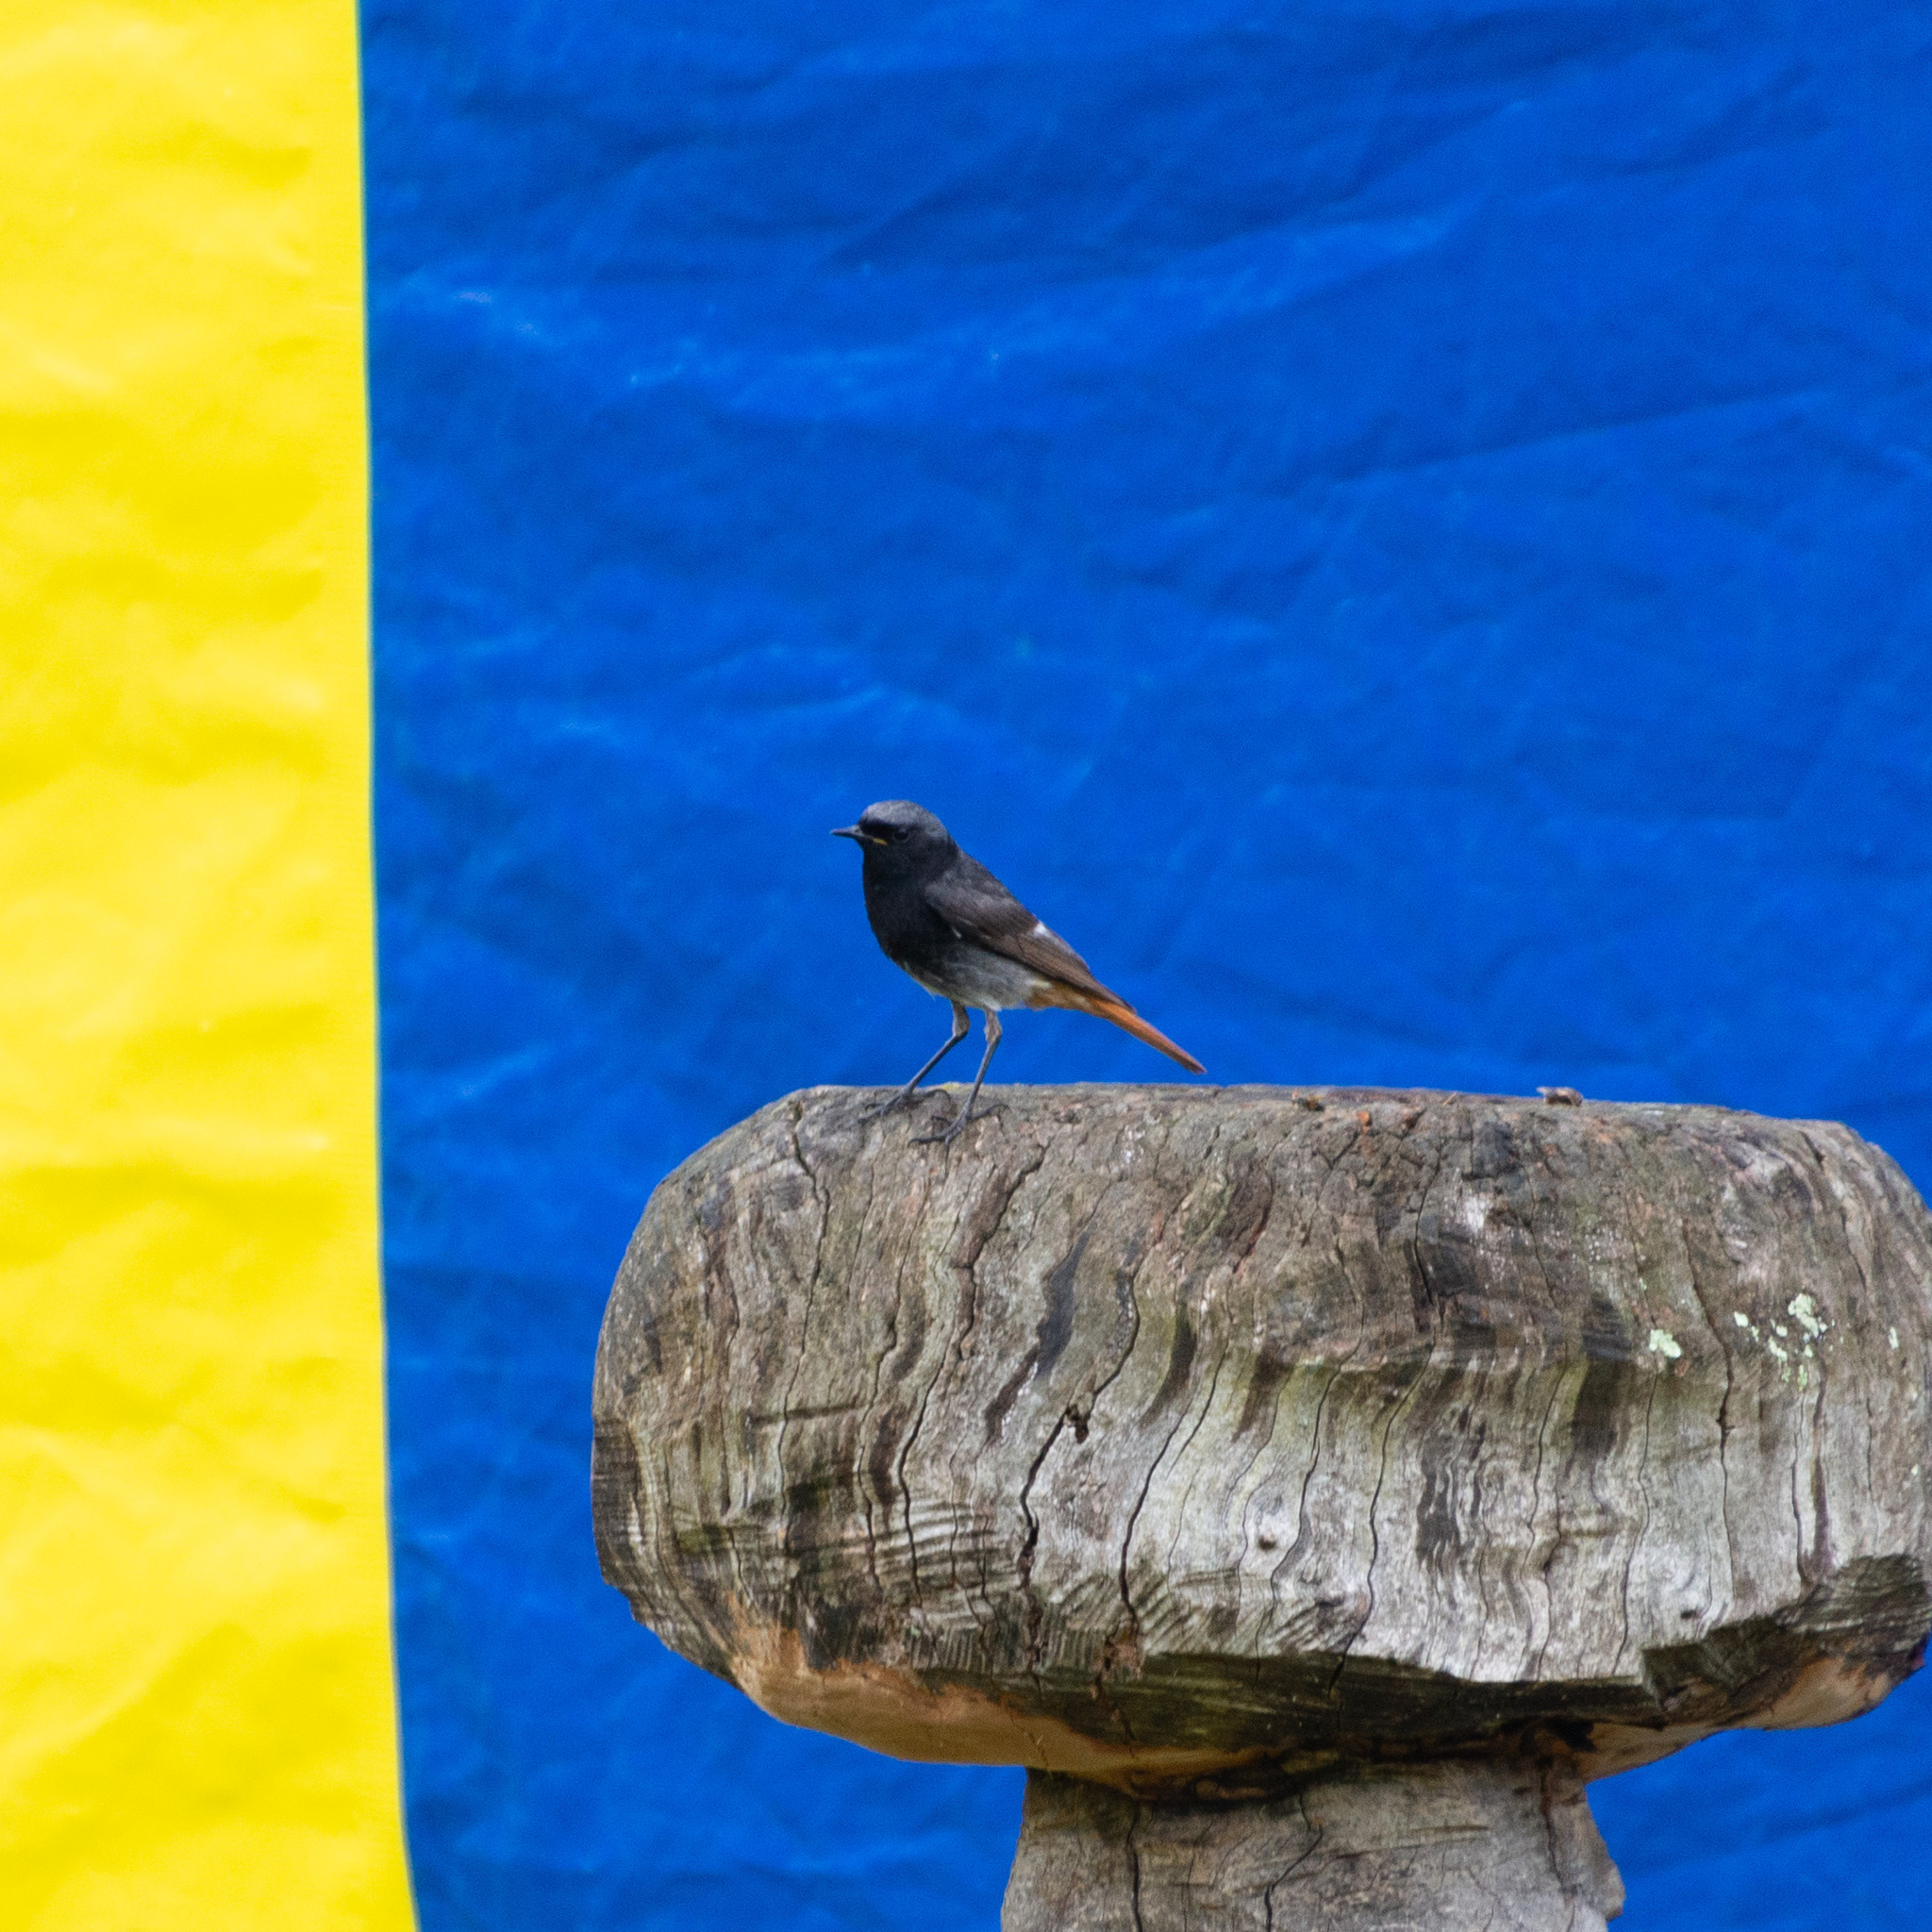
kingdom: Animalia
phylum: Chordata
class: Aves
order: Passeriformes
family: Muscicapidae
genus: Phoenicurus
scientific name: Phoenicurus ochruros
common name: Black redstart
